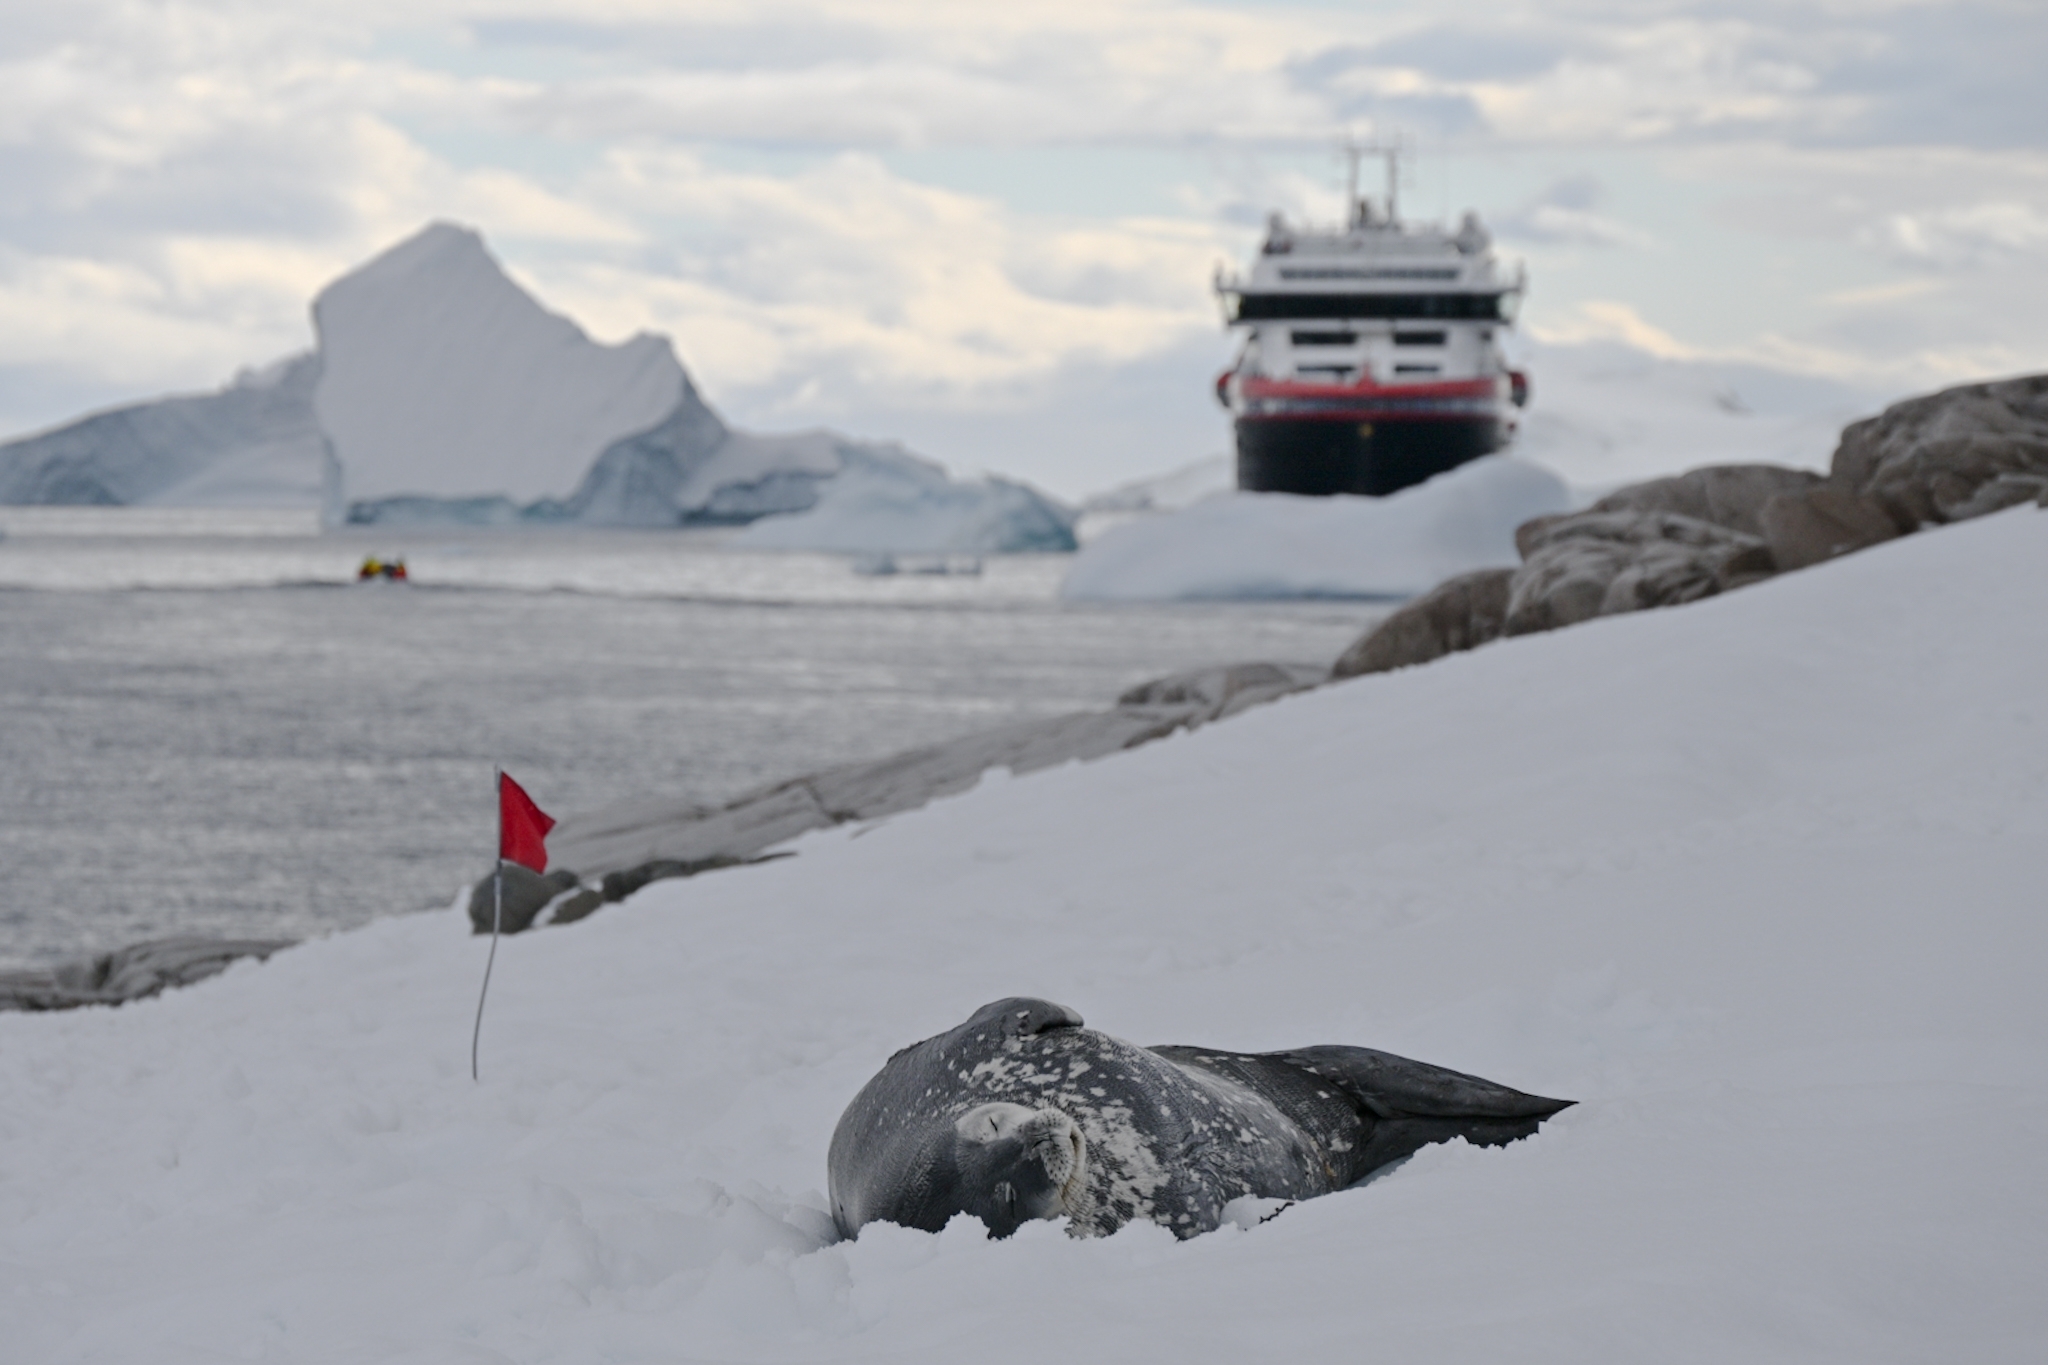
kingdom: Animalia
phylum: Chordata
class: Mammalia
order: Carnivora
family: Phocidae
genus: Leptonychotes
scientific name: Leptonychotes weddellii
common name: Weddell seal
